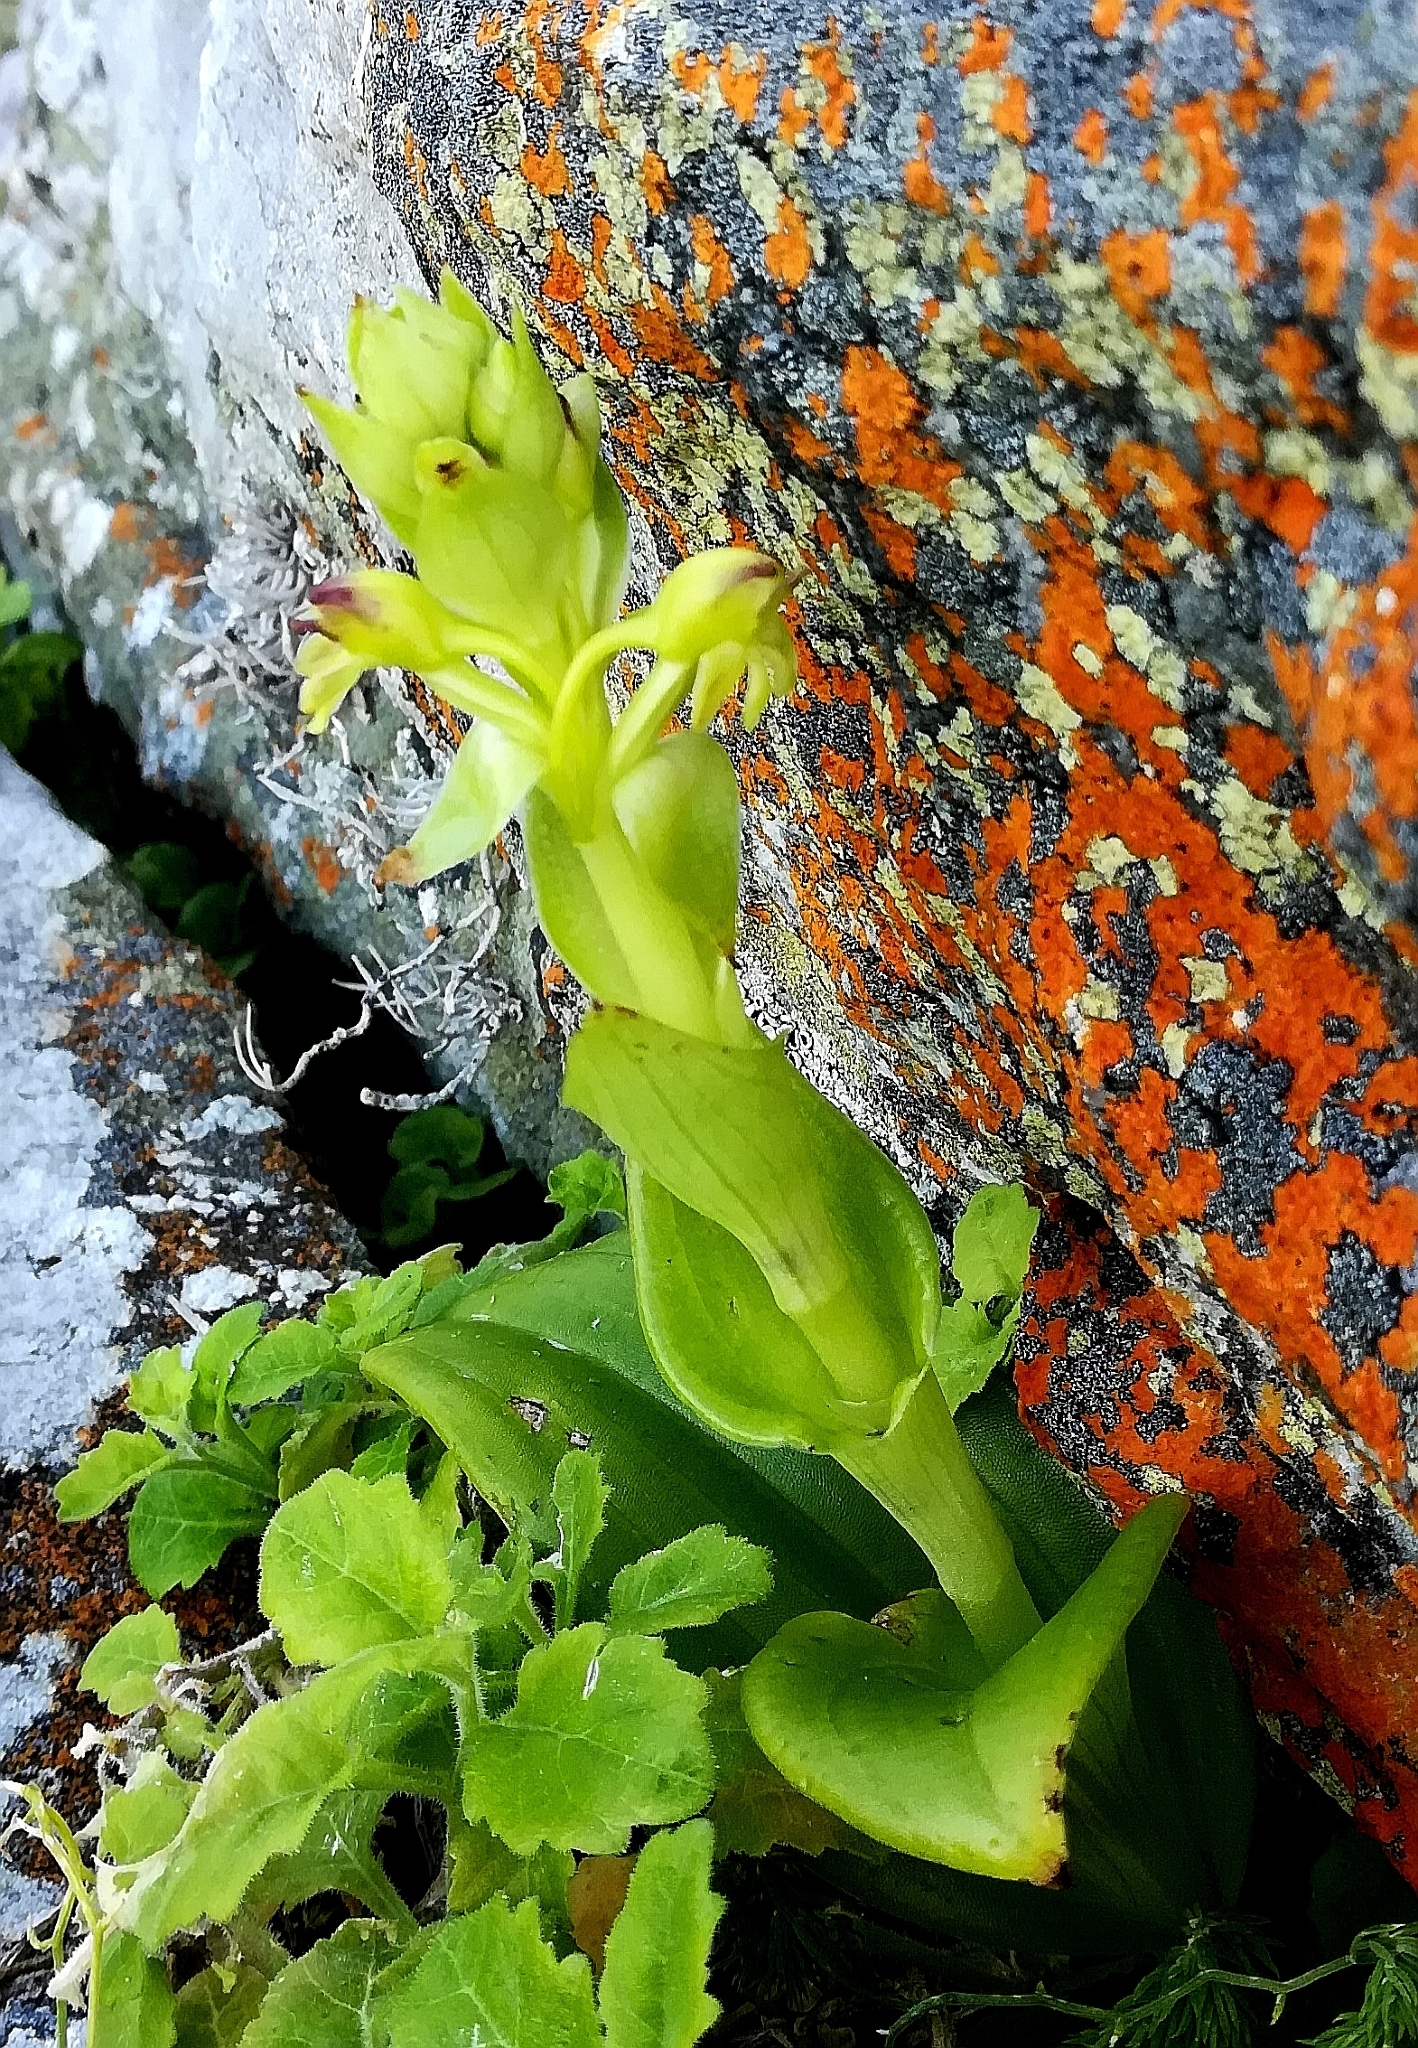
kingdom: Plantae
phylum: Tracheophyta
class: Liliopsida
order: Asparagales
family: Orchidaceae
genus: Satyrium
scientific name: Satyrium odorum
